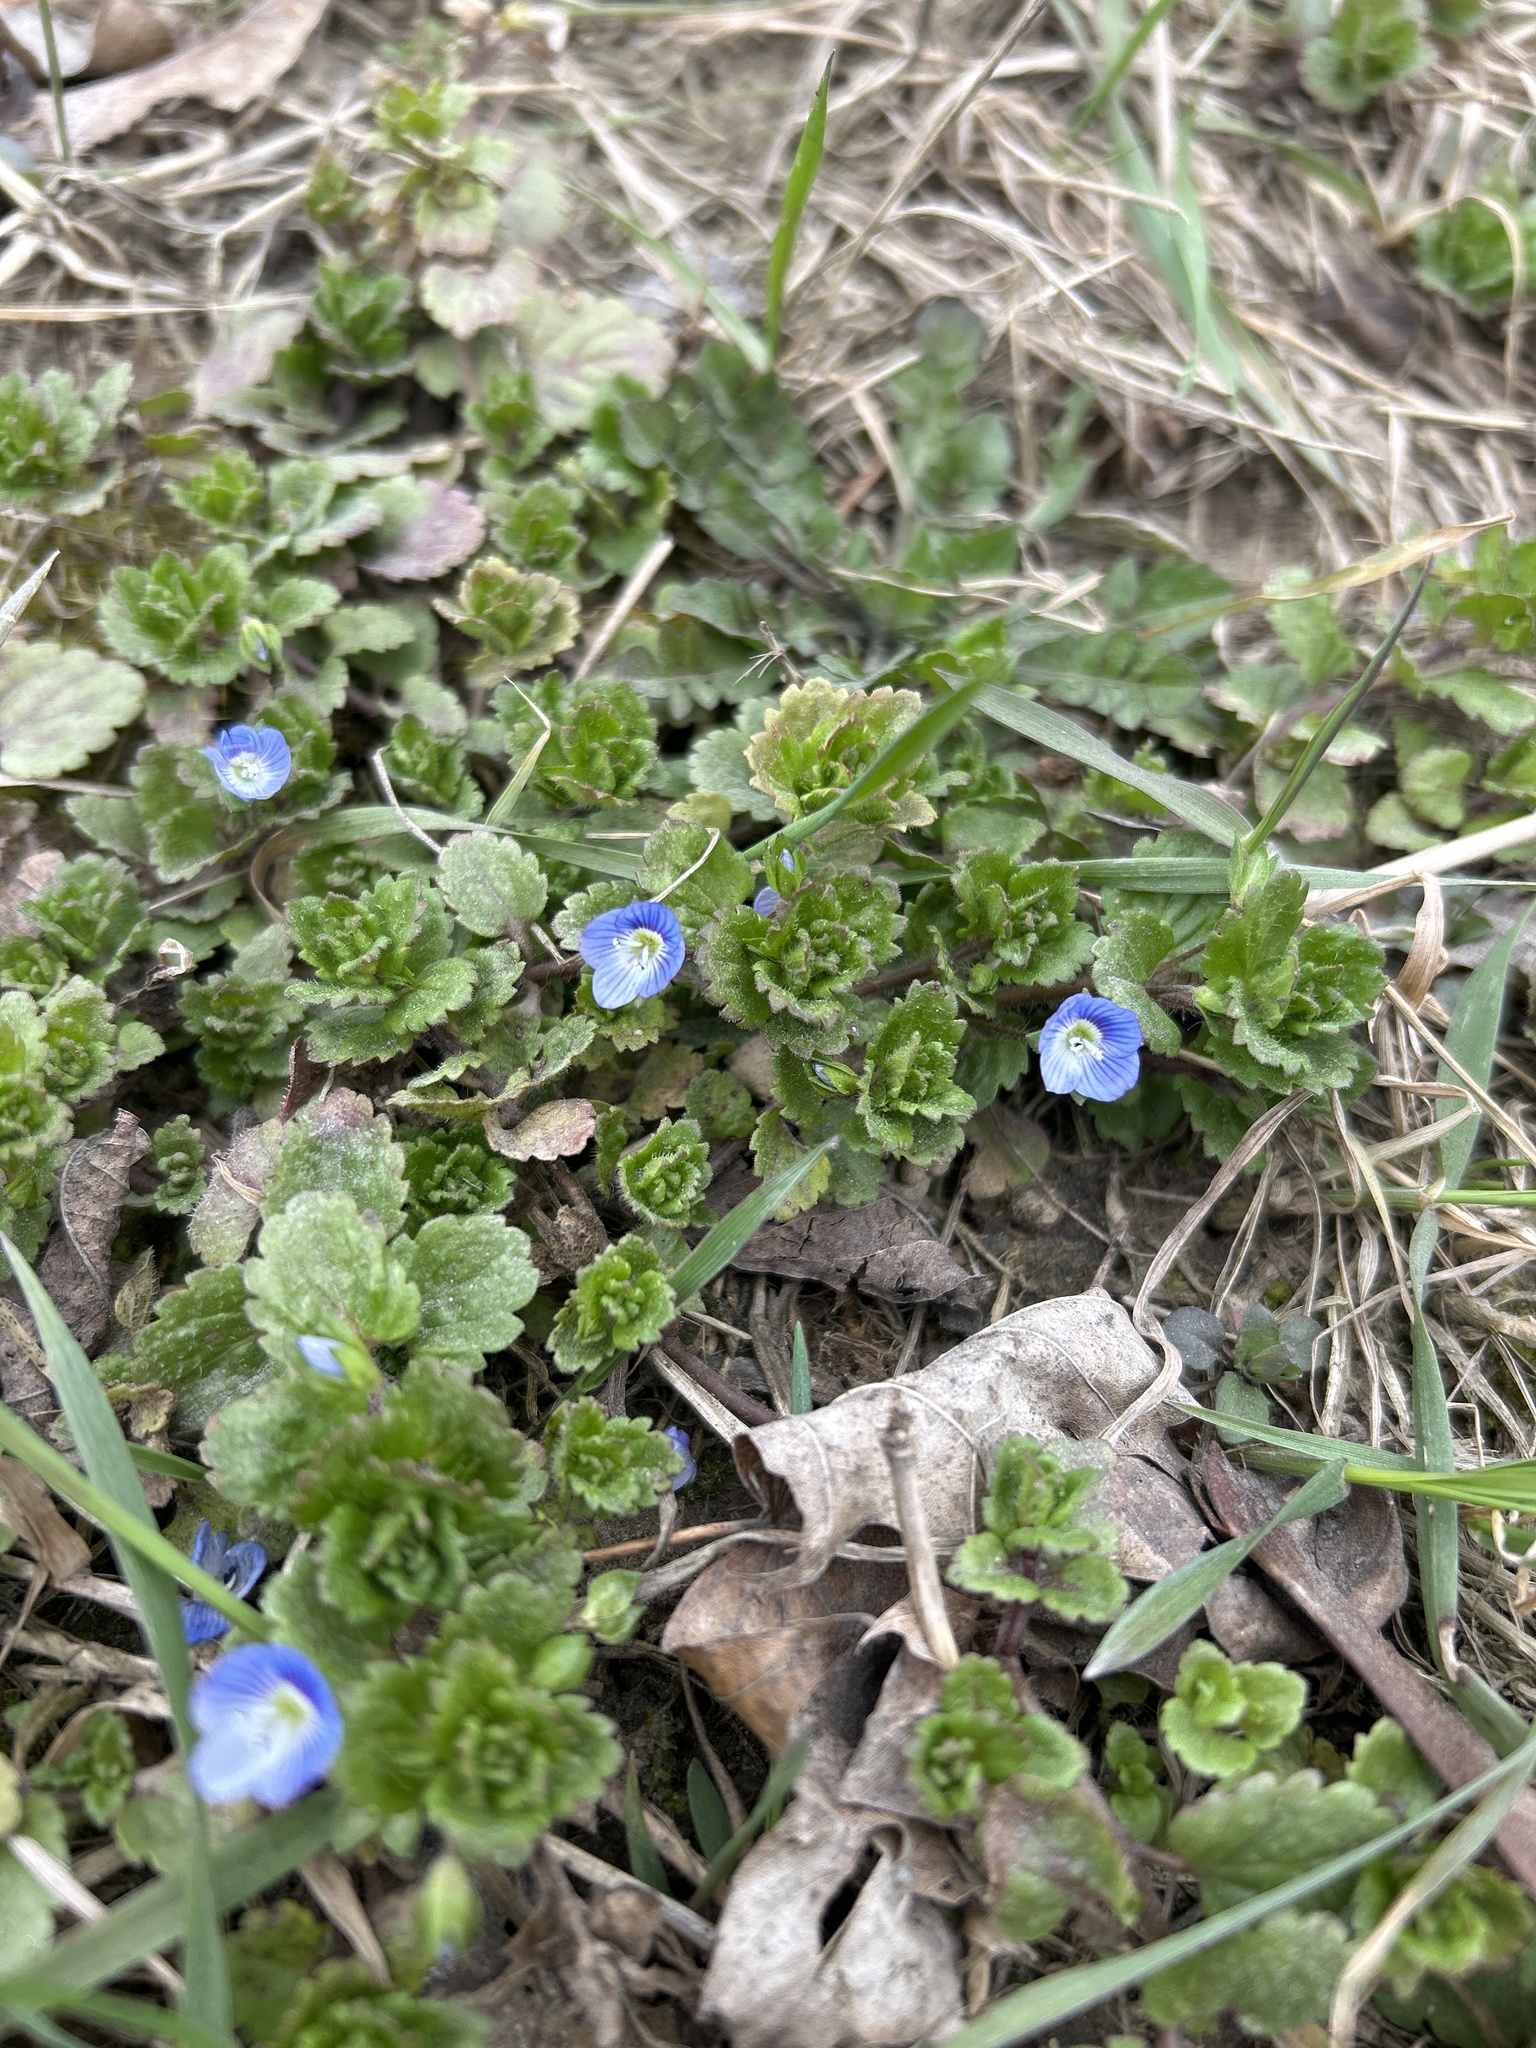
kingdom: Plantae
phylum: Tracheophyta
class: Magnoliopsida
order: Lamiales
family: Plantaginaceae
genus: Veronica
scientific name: Veronica persica
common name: Common field-speedwell
